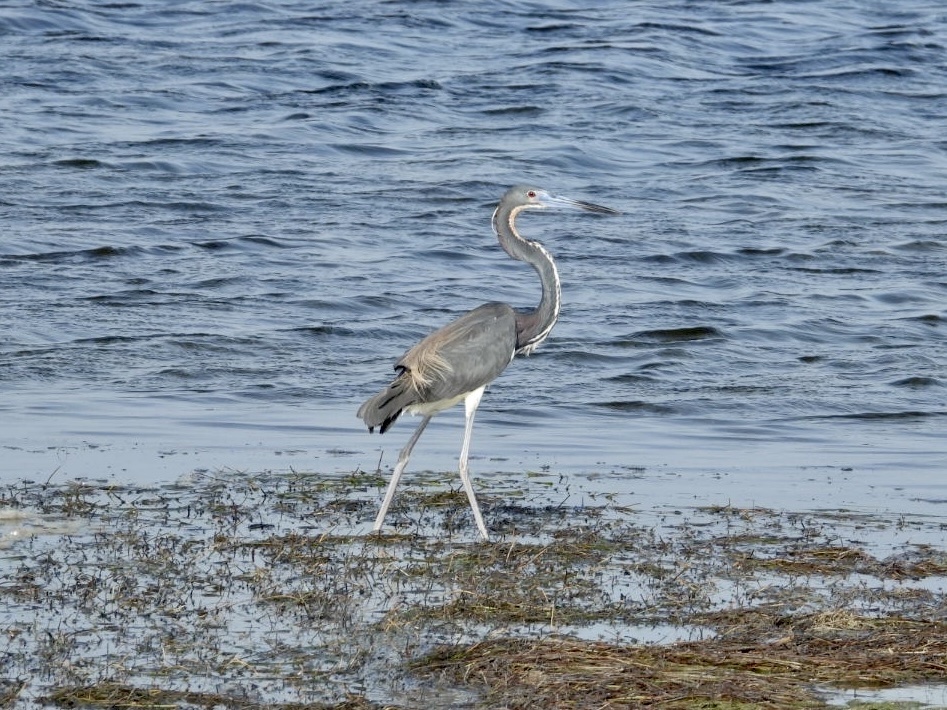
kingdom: Animalia
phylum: Chordata
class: Aves
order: Pelecaniformes
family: Ardeidae
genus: Egretta
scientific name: Egretta tricolor
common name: Tricolored heron
